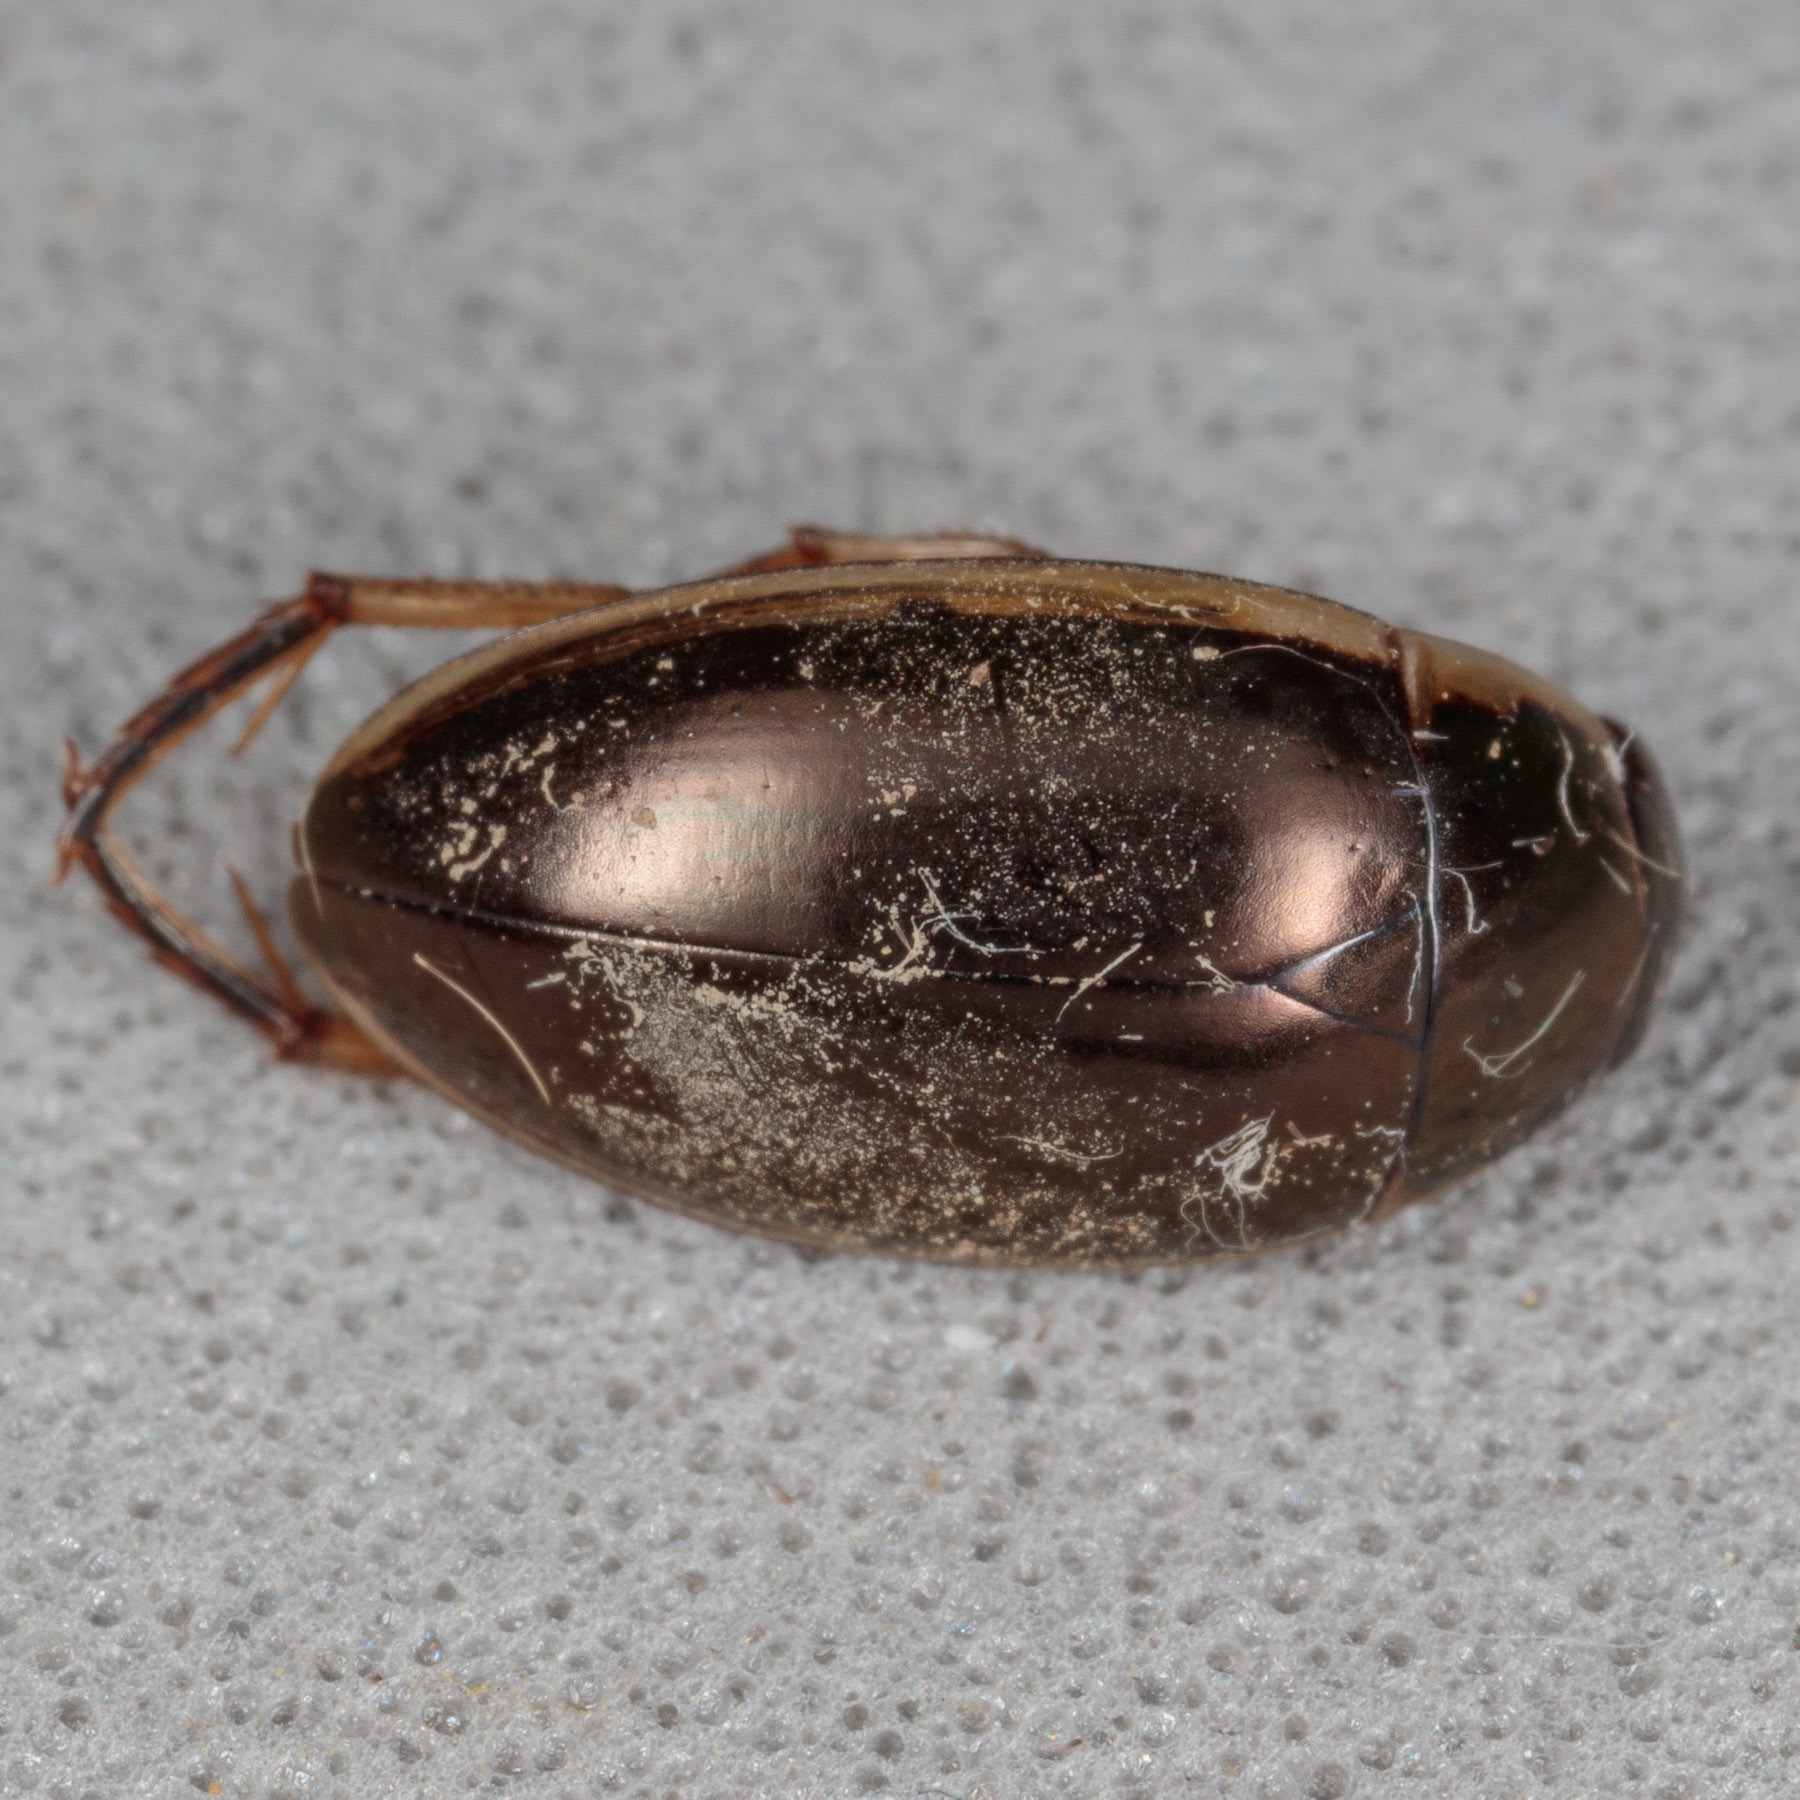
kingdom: Animalia
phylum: Arthropoda
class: Insecta
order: Coleoptera
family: Hydrophilidae
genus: Tropisternus
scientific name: Tropisternus lateralis
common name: Lateral-banded water scavenger beetle
